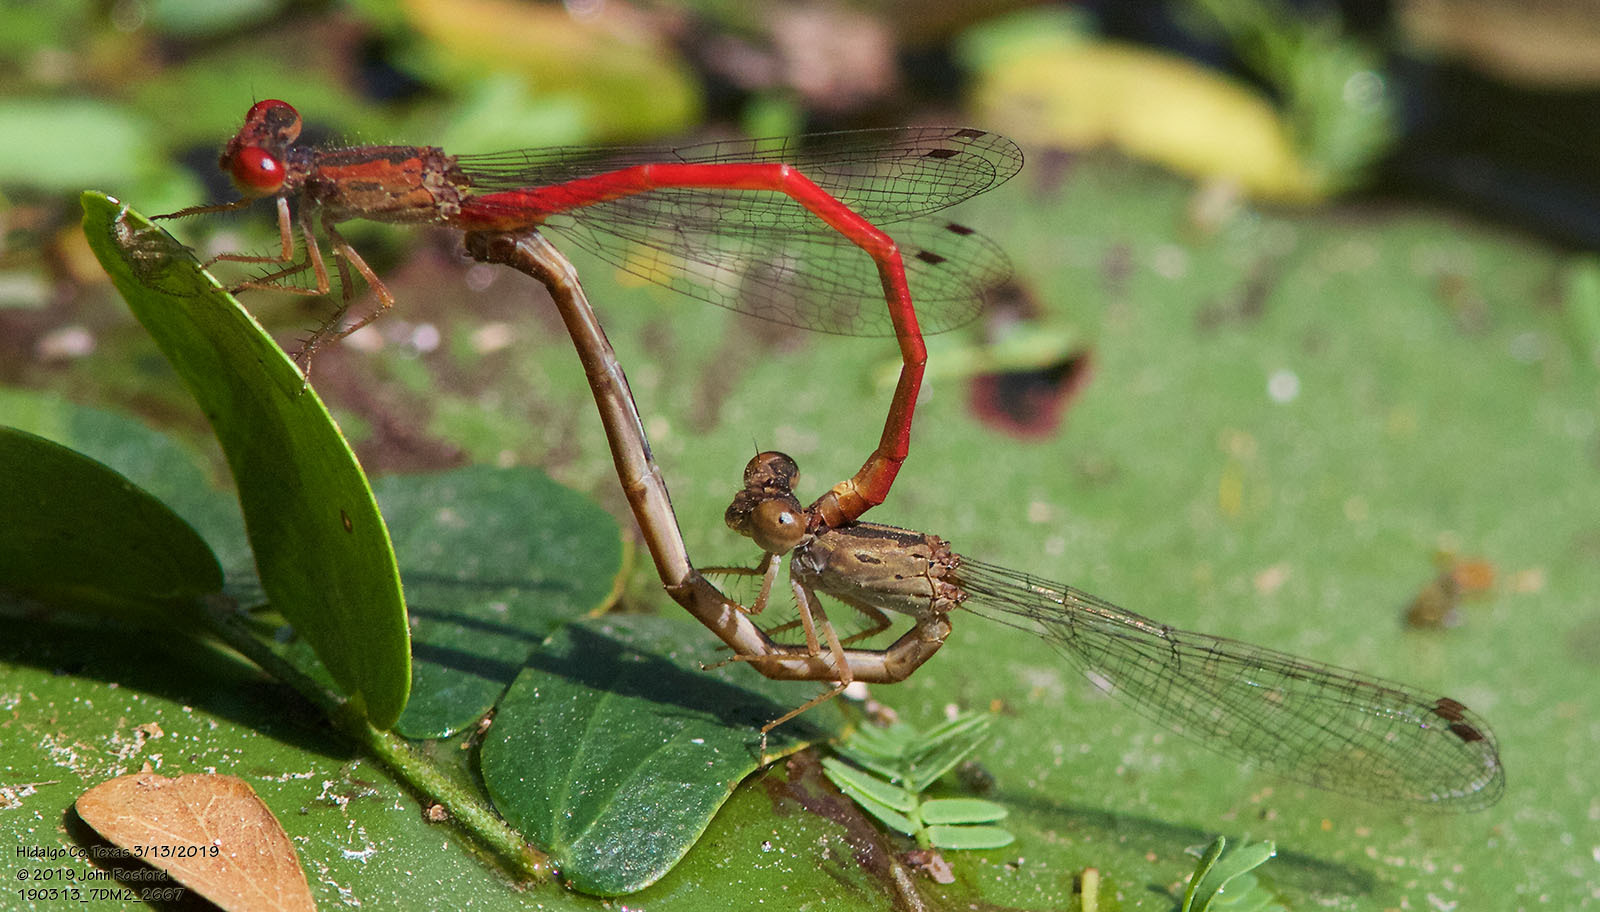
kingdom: Animalia
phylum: Arthropoda
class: Insecta
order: Odonata
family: Coenagrionidae
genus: Telebasis
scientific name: Telebasis salva
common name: Desert firetail
